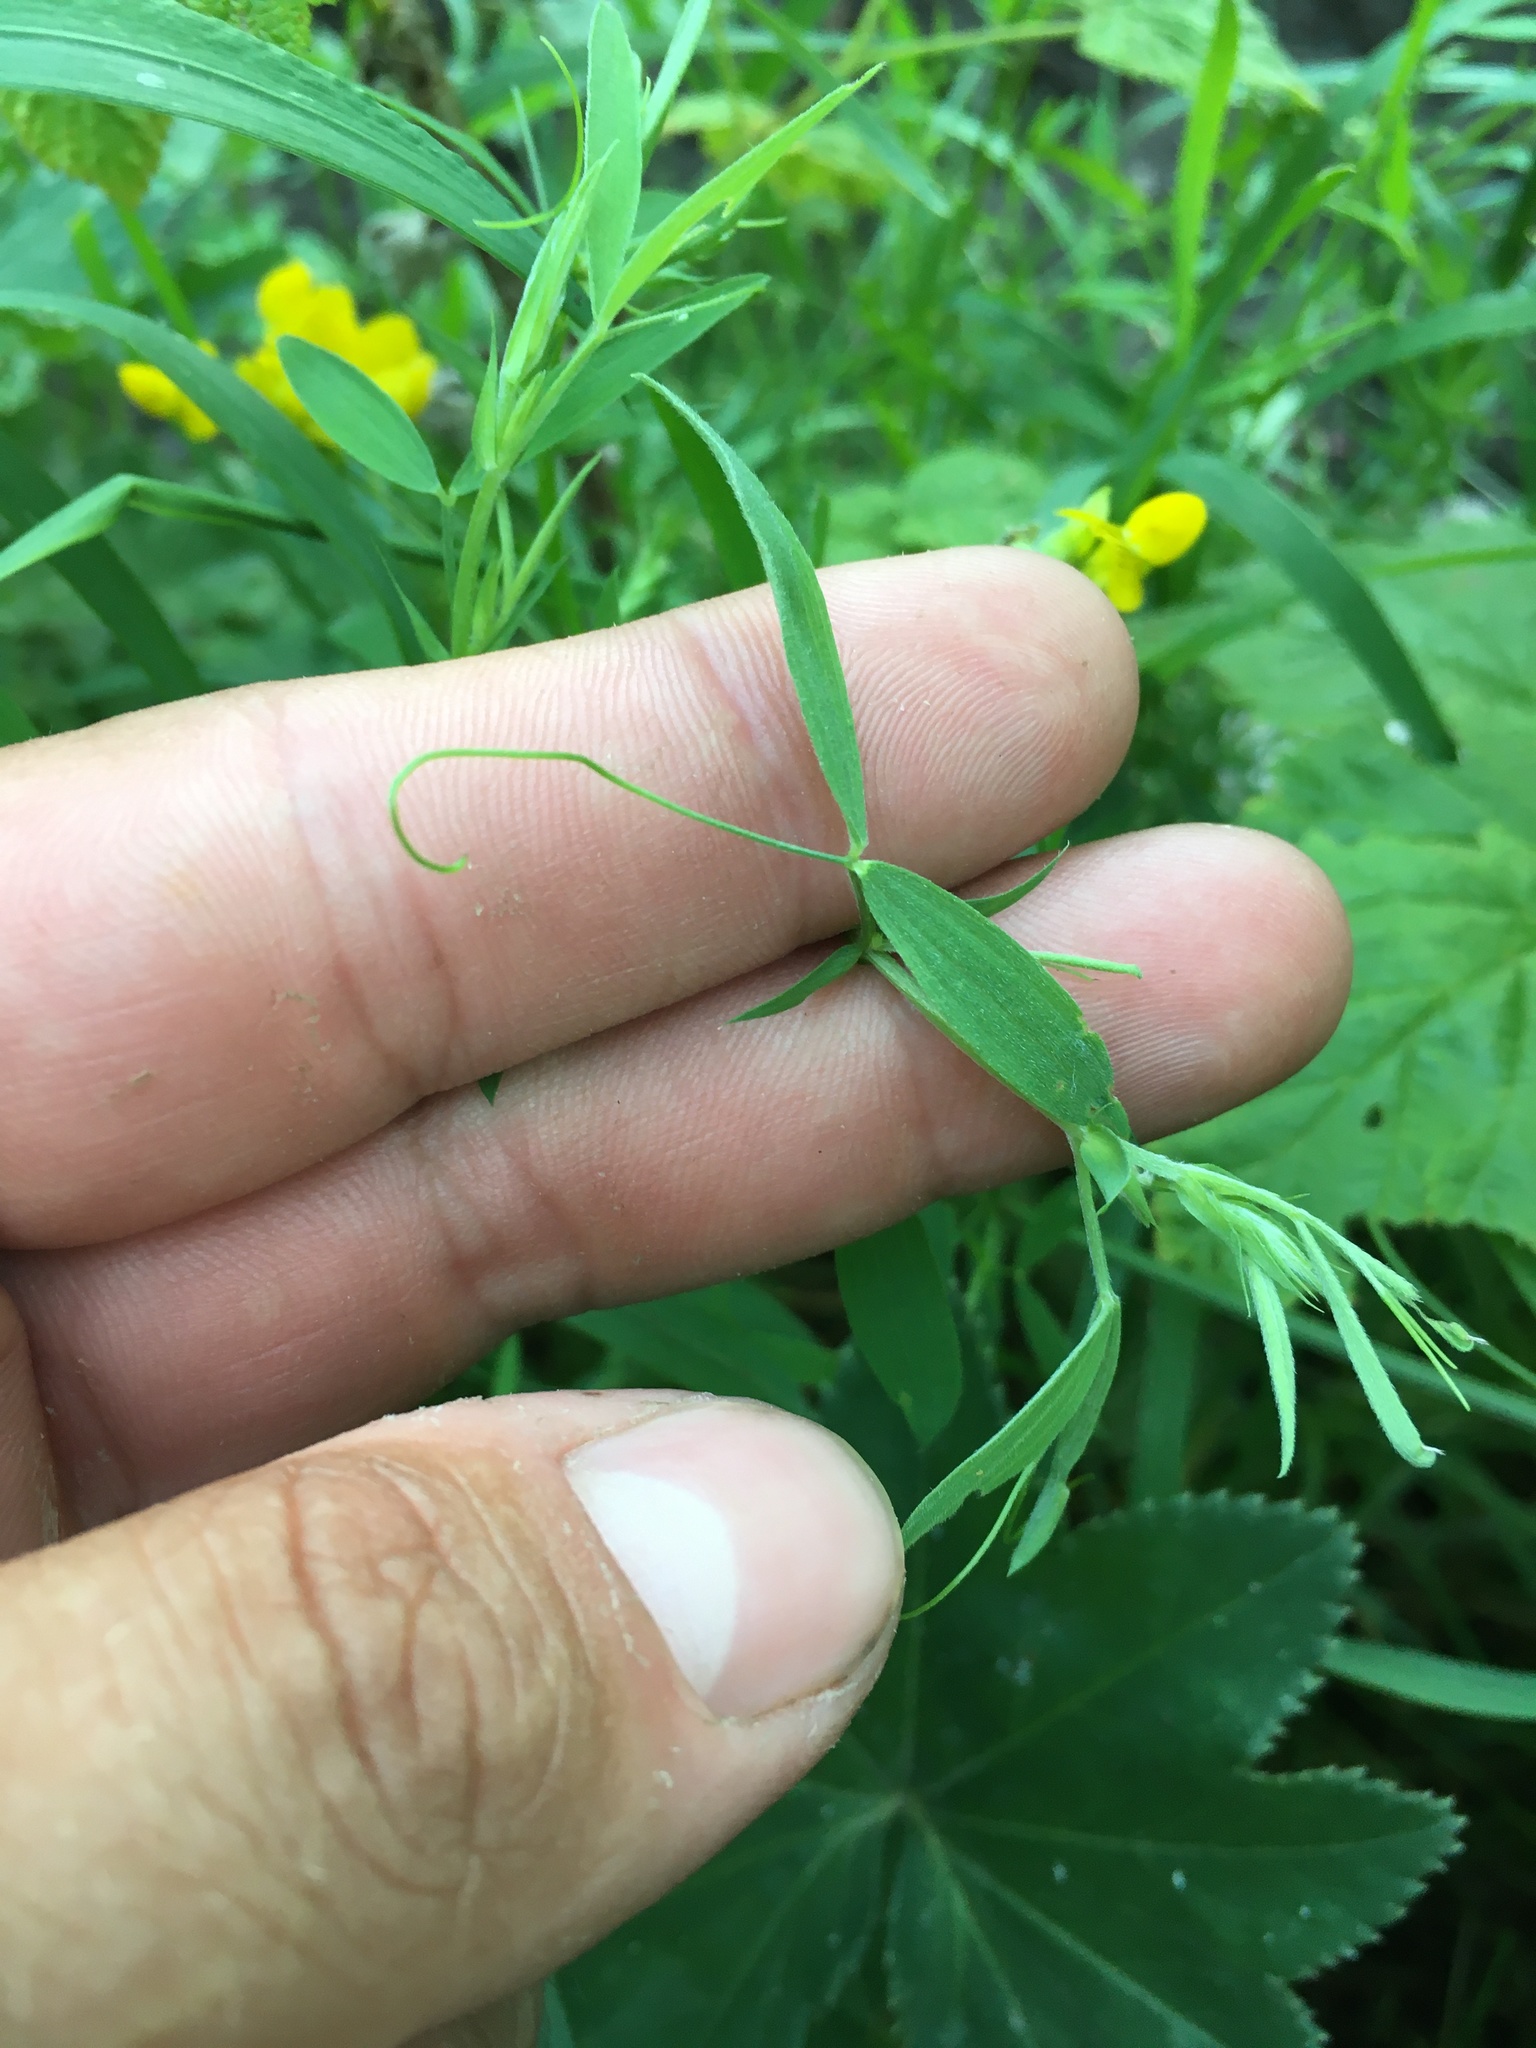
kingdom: Plantae
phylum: Tracheophyta
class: Magnoliopsida
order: Fabales
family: Fabaceae
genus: Lathyrus
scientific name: Lathyrus pratensis
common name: Meadow vetchling
